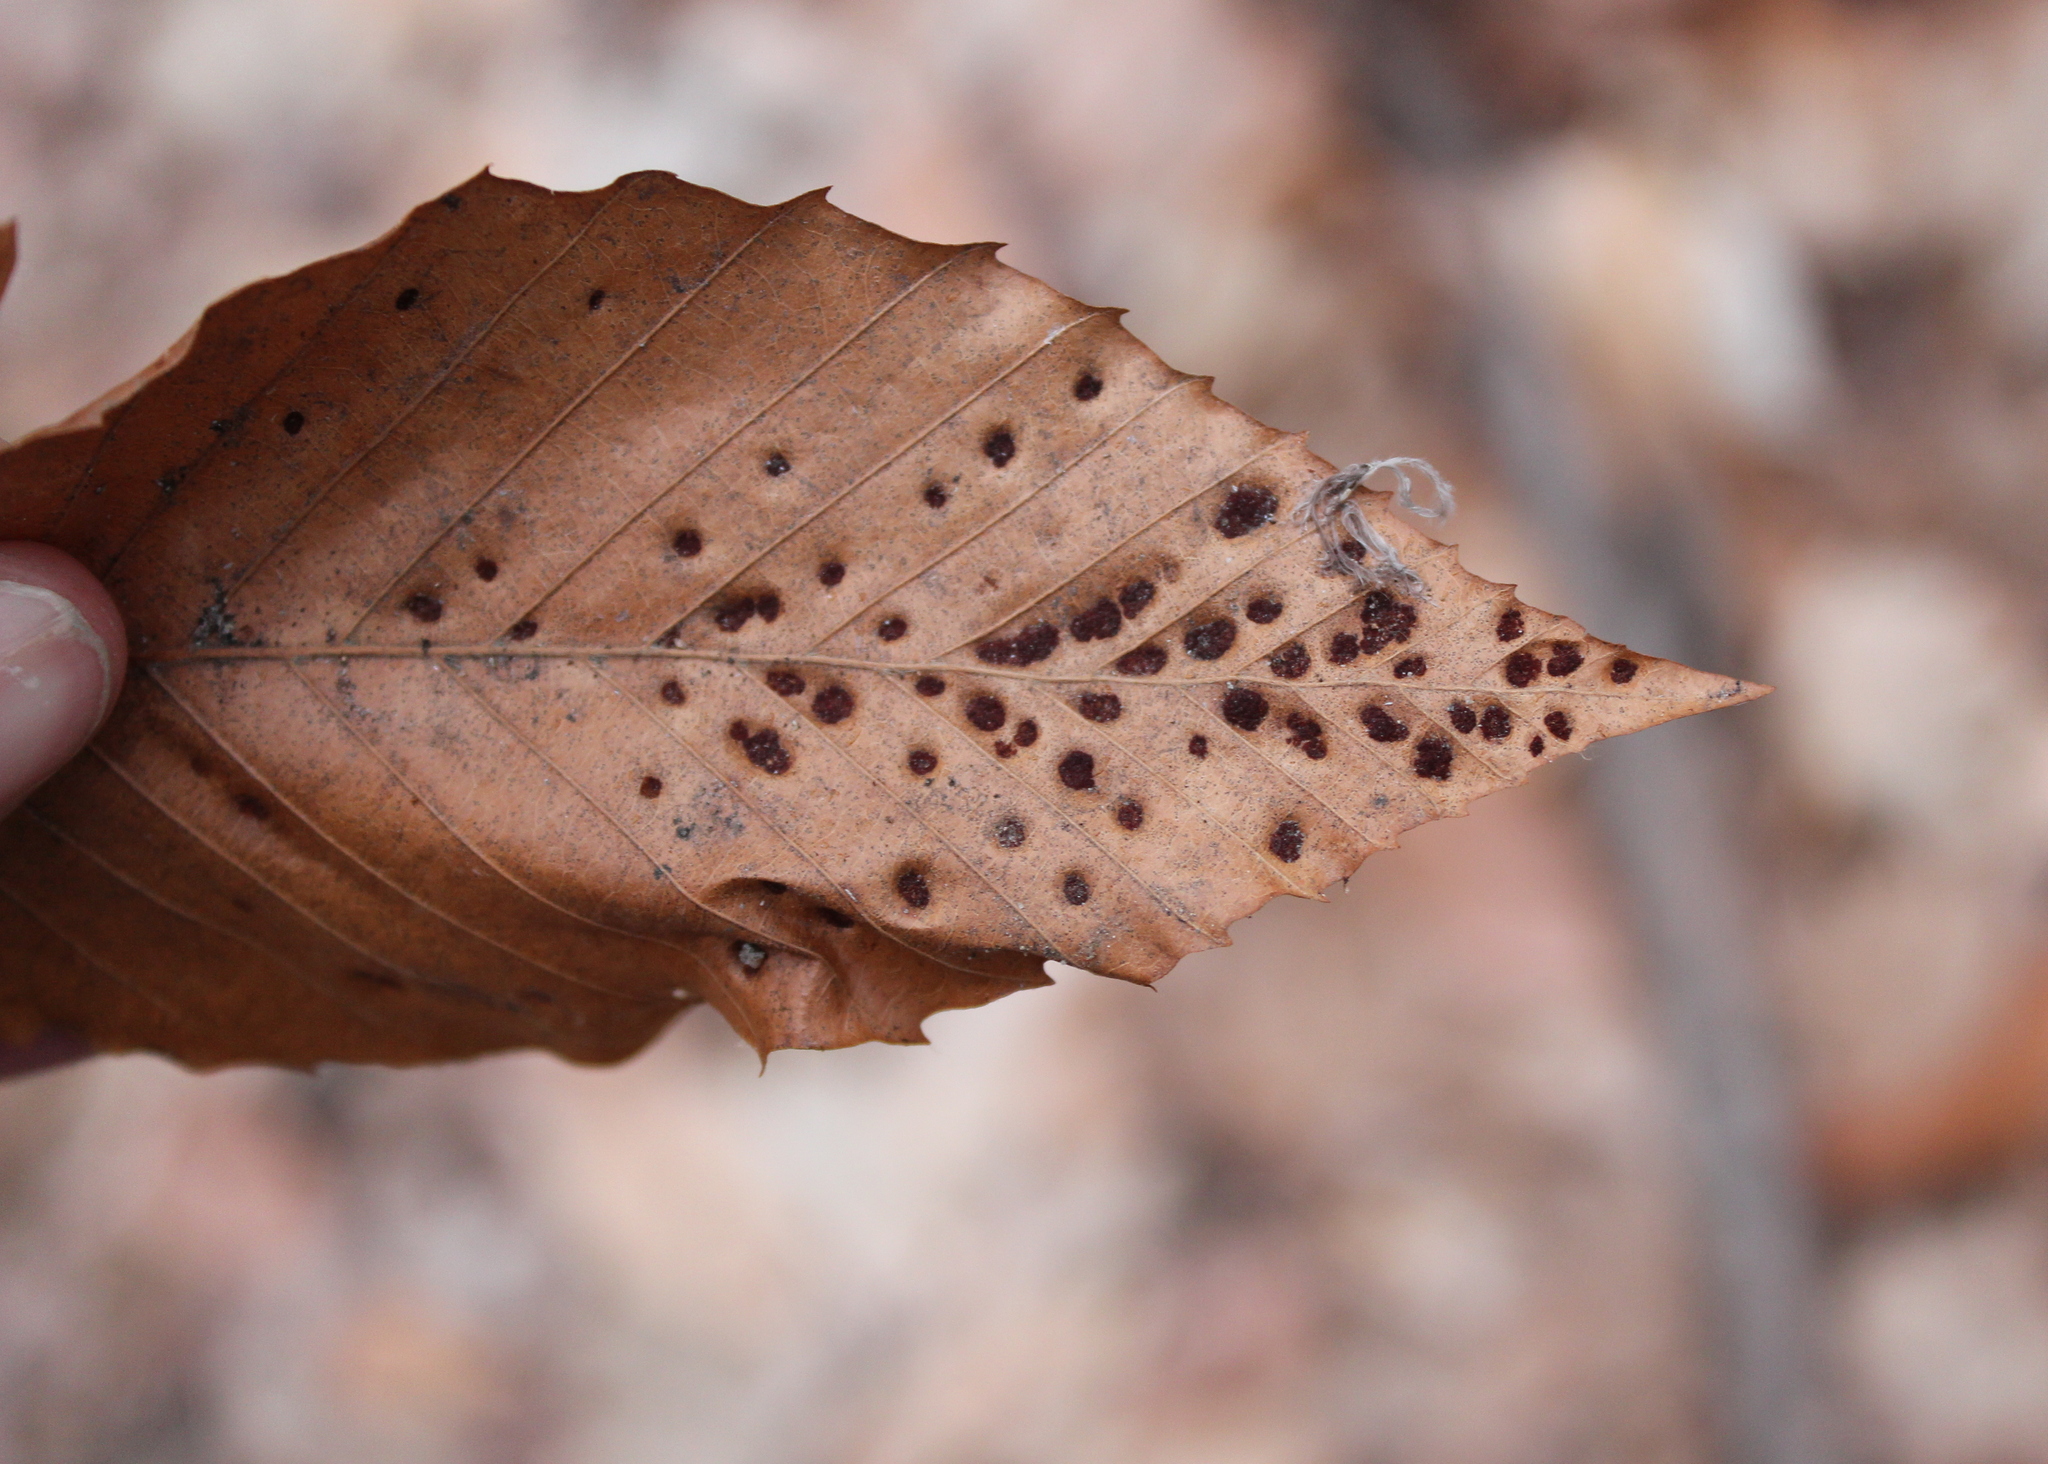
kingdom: Animalia
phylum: Arthropoda
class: Arachnida
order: Trombidiformes
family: Eriophyidae
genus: Acalitus
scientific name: Acalitus
